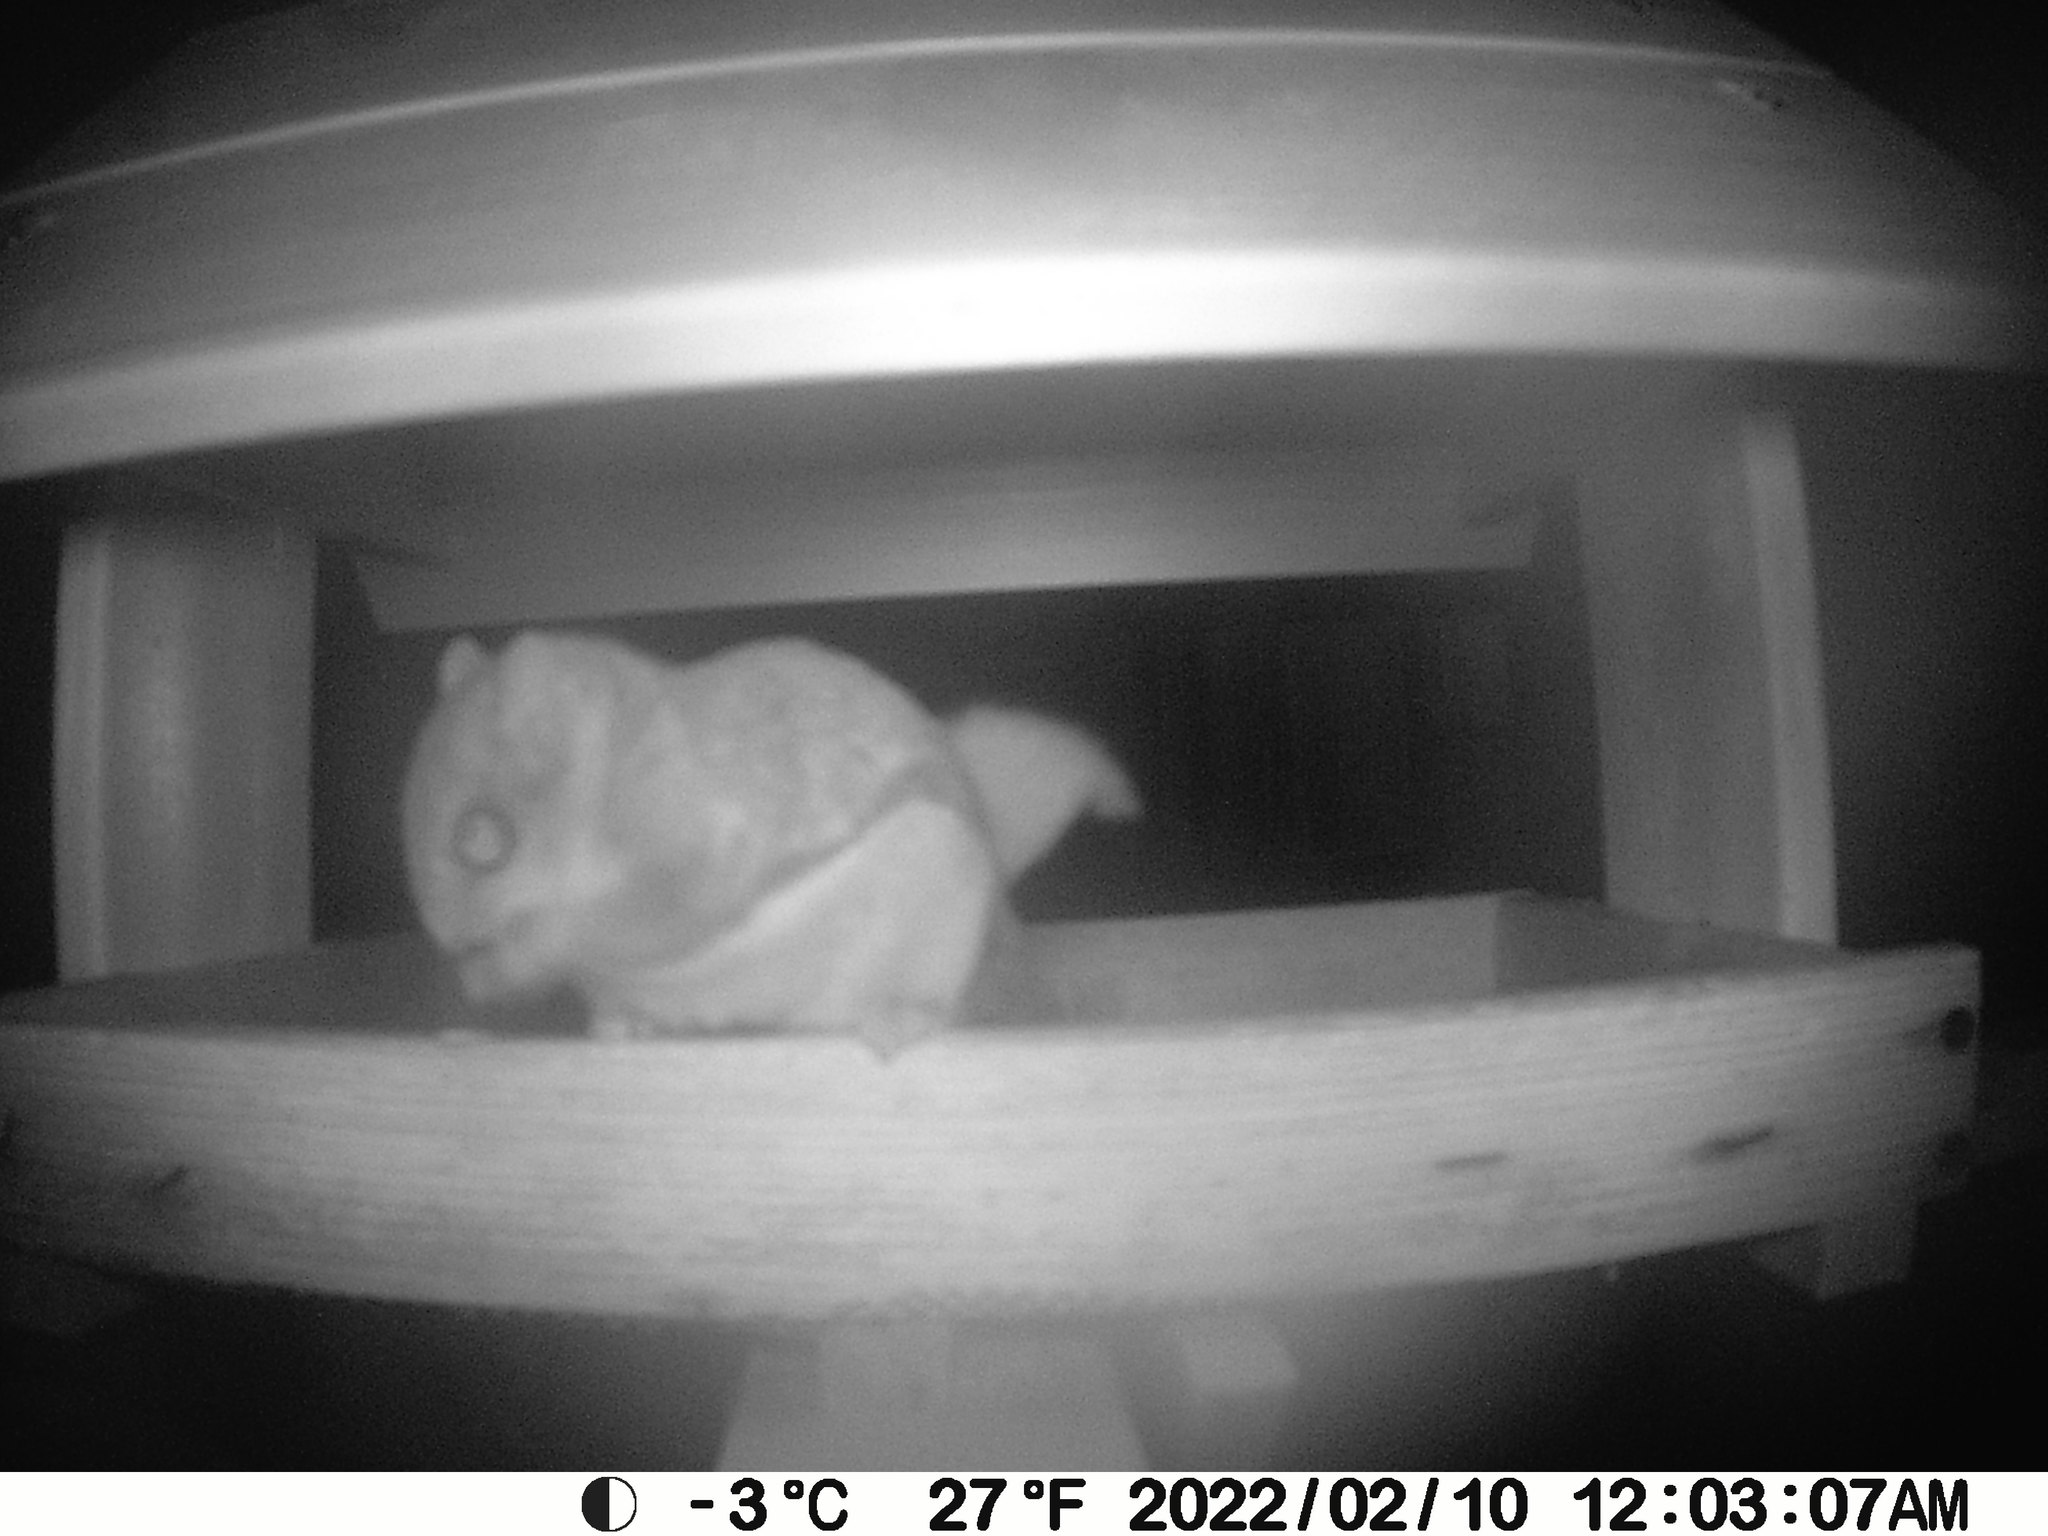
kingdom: Animalia
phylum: Chordata
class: Mammalia
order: Rodentia
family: Sciuridae
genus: Glaucomys
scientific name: Glaucomys sabrinus
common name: Northern flying squirrel
